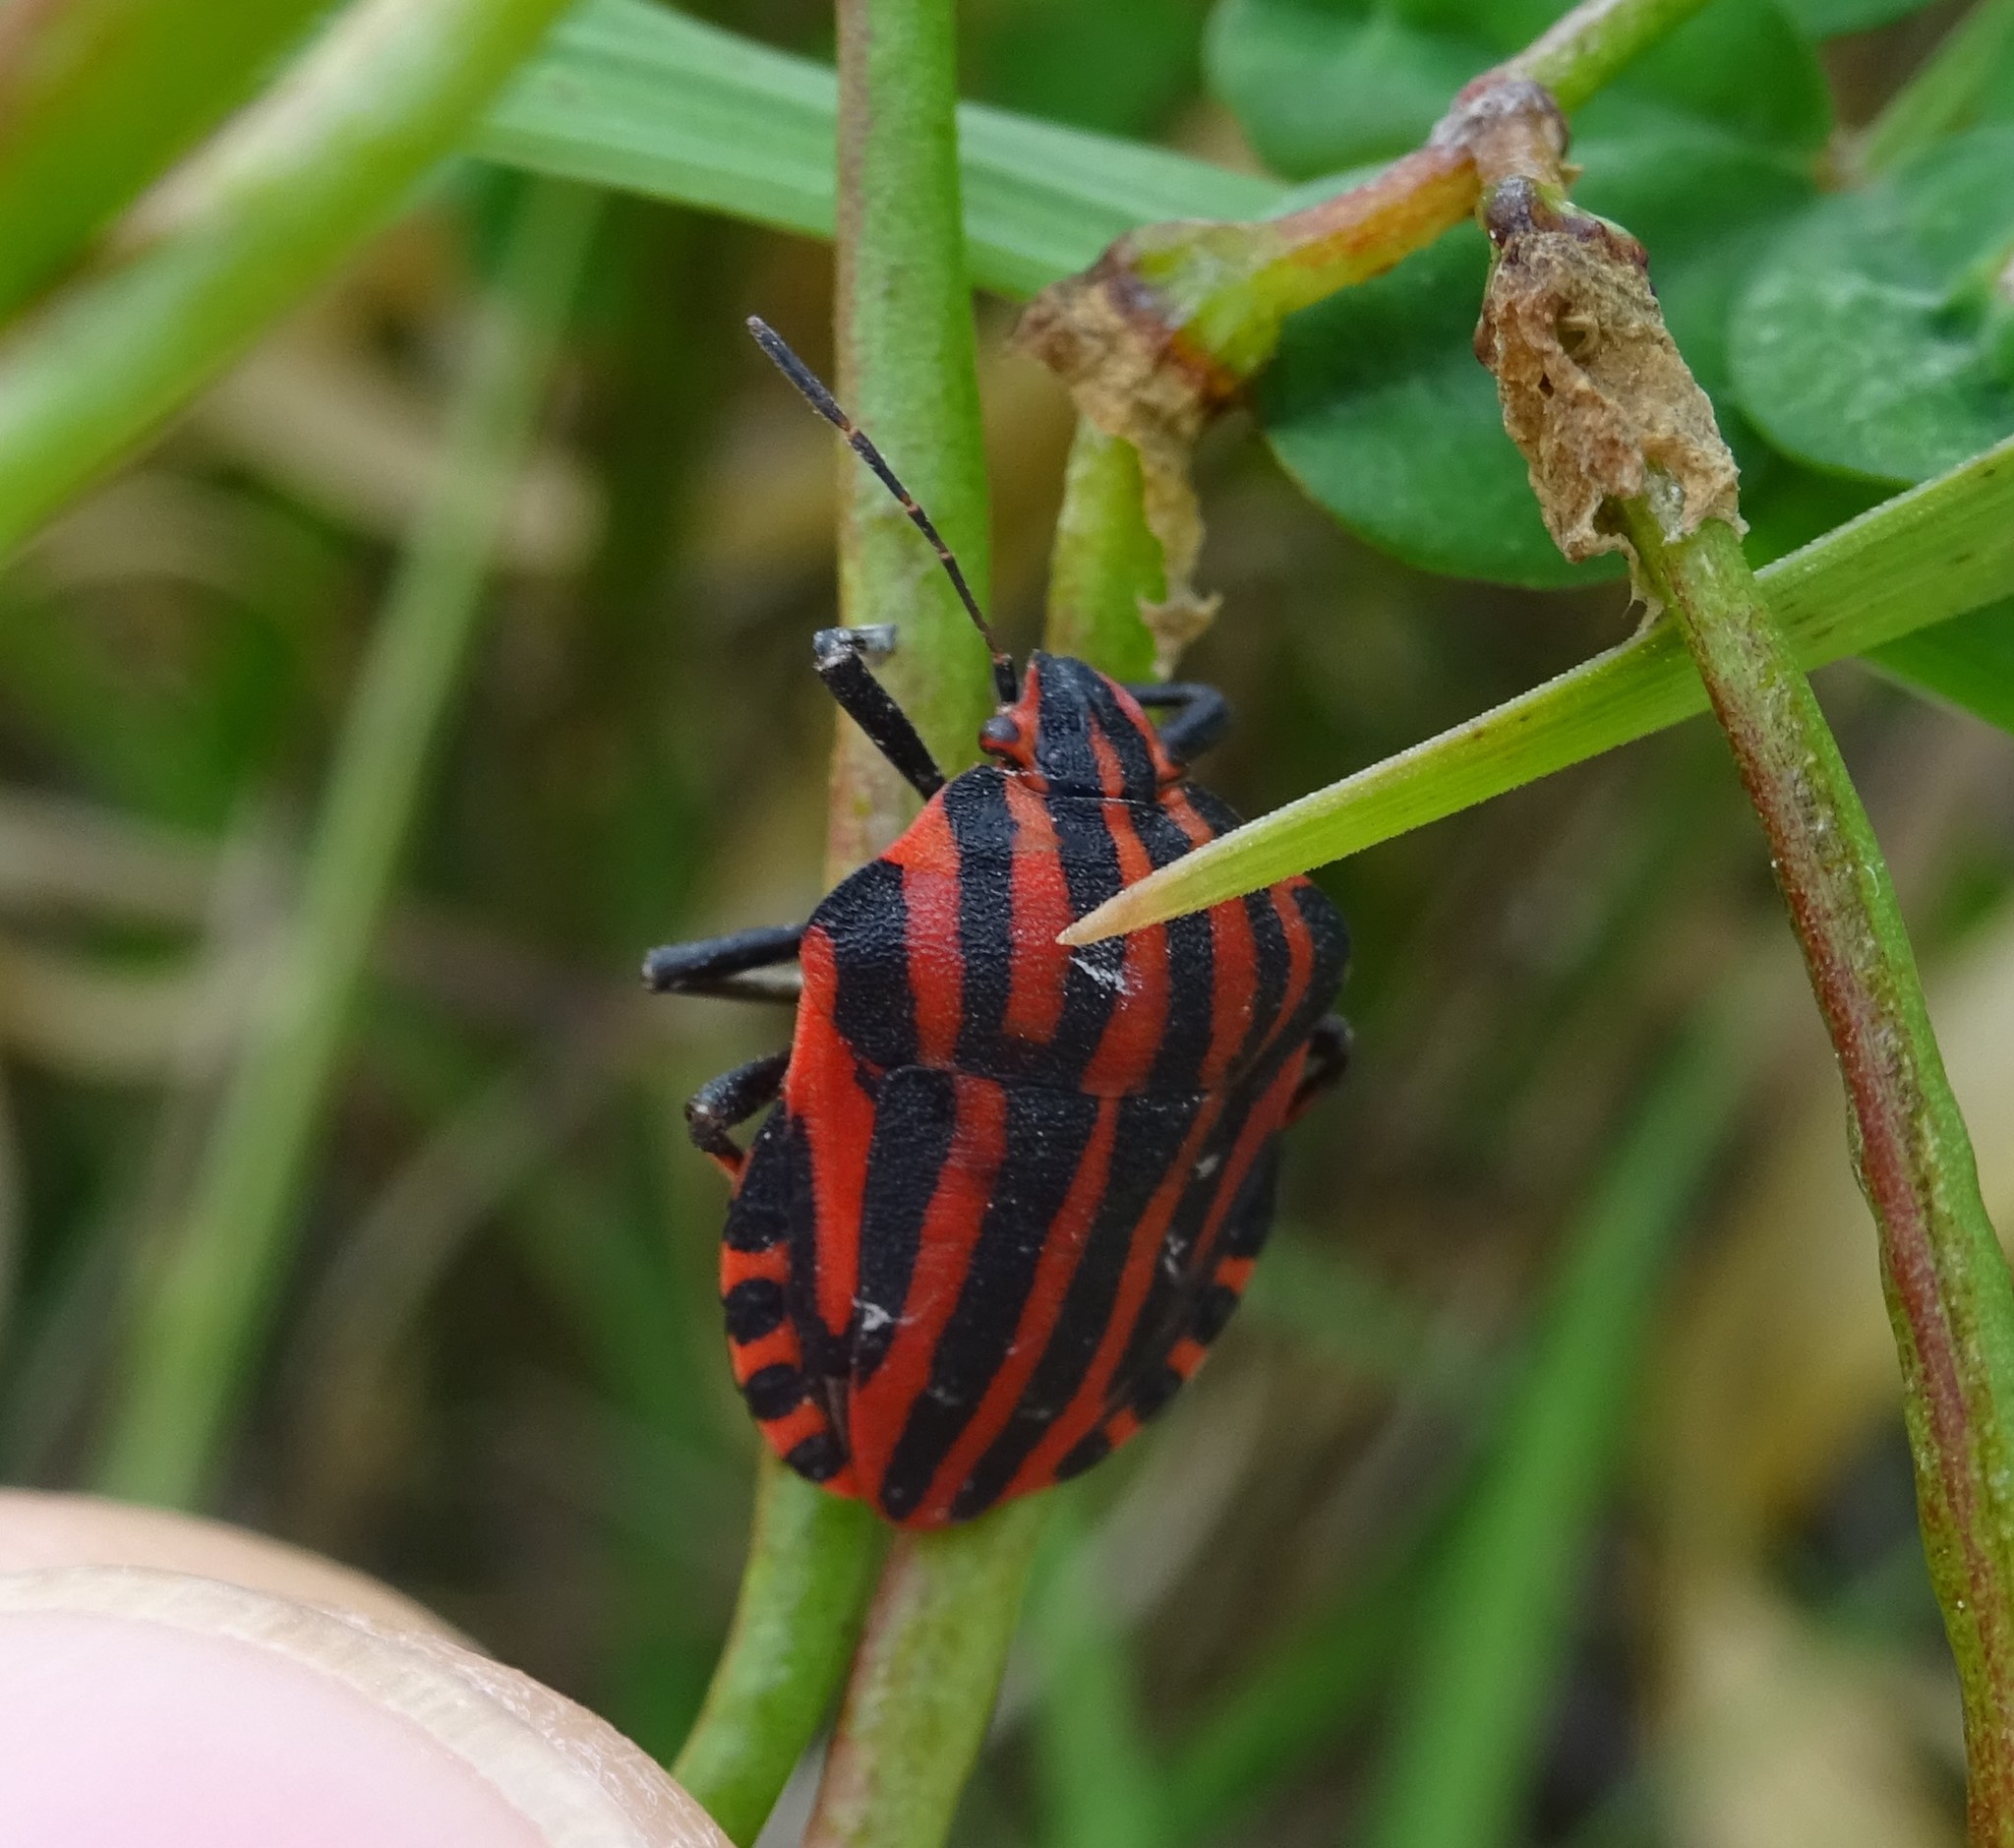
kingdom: Animalia
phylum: Arthropoda
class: Insecta
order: Hemiptera
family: Pentatomidae
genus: Graphosoma
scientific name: Graphosoma italicum
